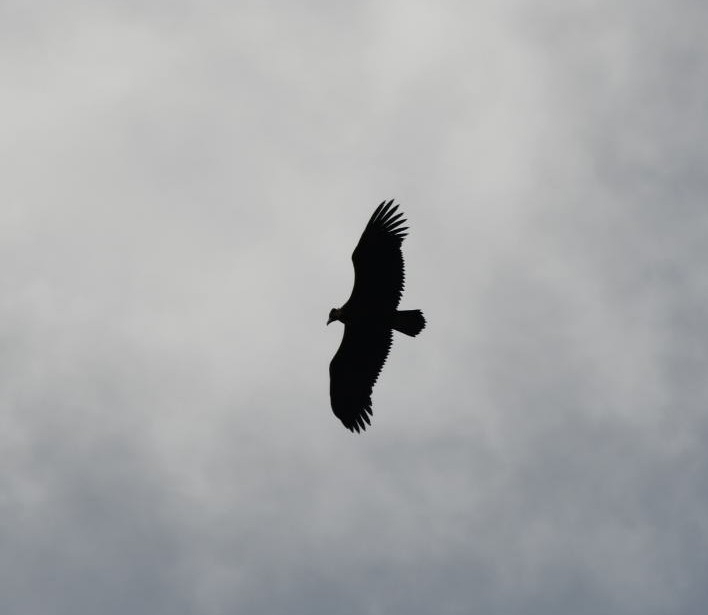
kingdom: Animalia
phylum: Chordata
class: Aves
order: Accipitriformes
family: Accipitridae
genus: Aegypius
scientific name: Aegypius monachus
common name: Cinereous vulture
